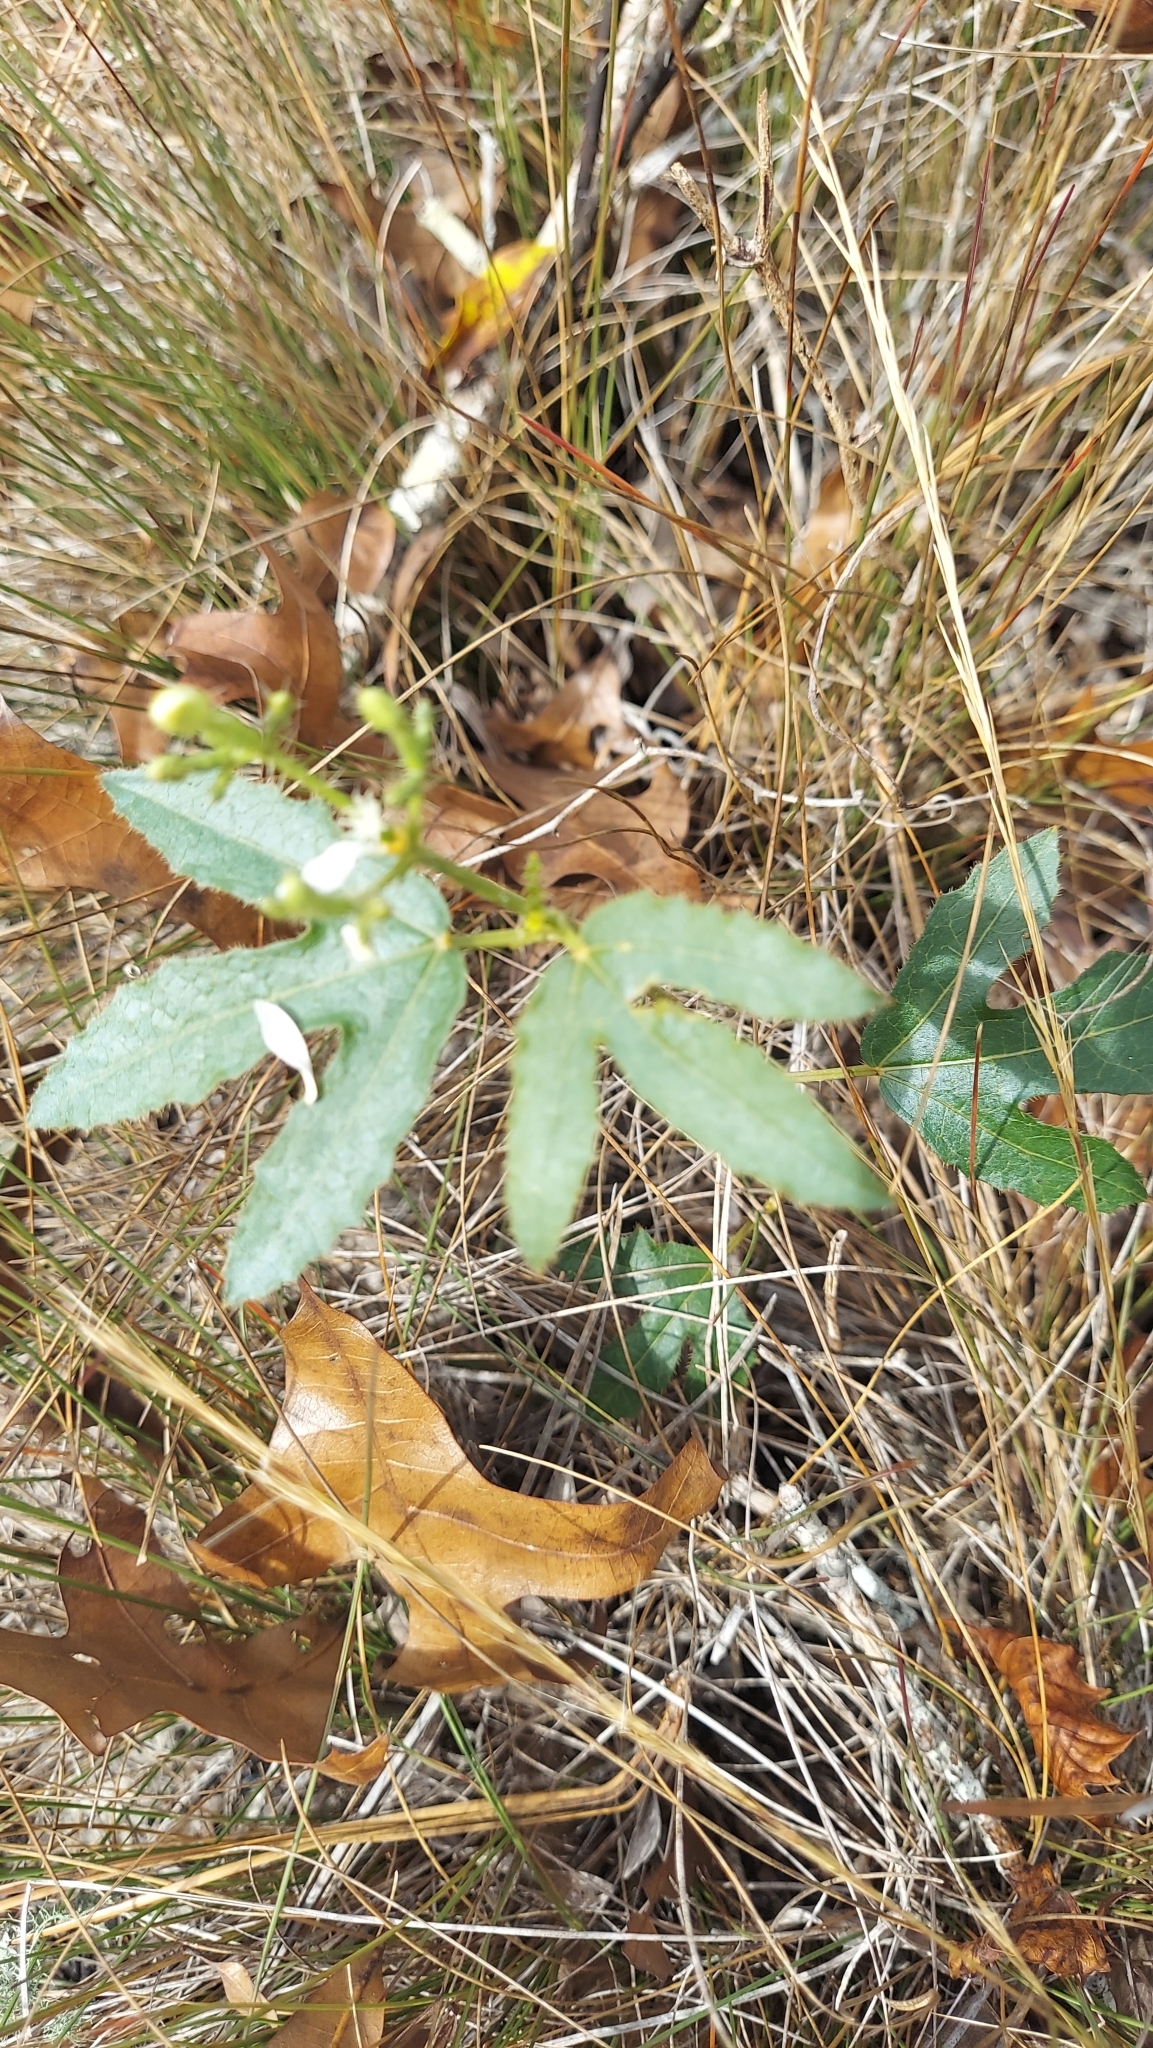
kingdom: Plantae
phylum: Tracheophyta
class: Magnoliopsida
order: Malpighiales
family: Euphorbiaceae
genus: Cnidoscolus
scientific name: Cnidoscolus stimulosus
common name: Bull-nettle
